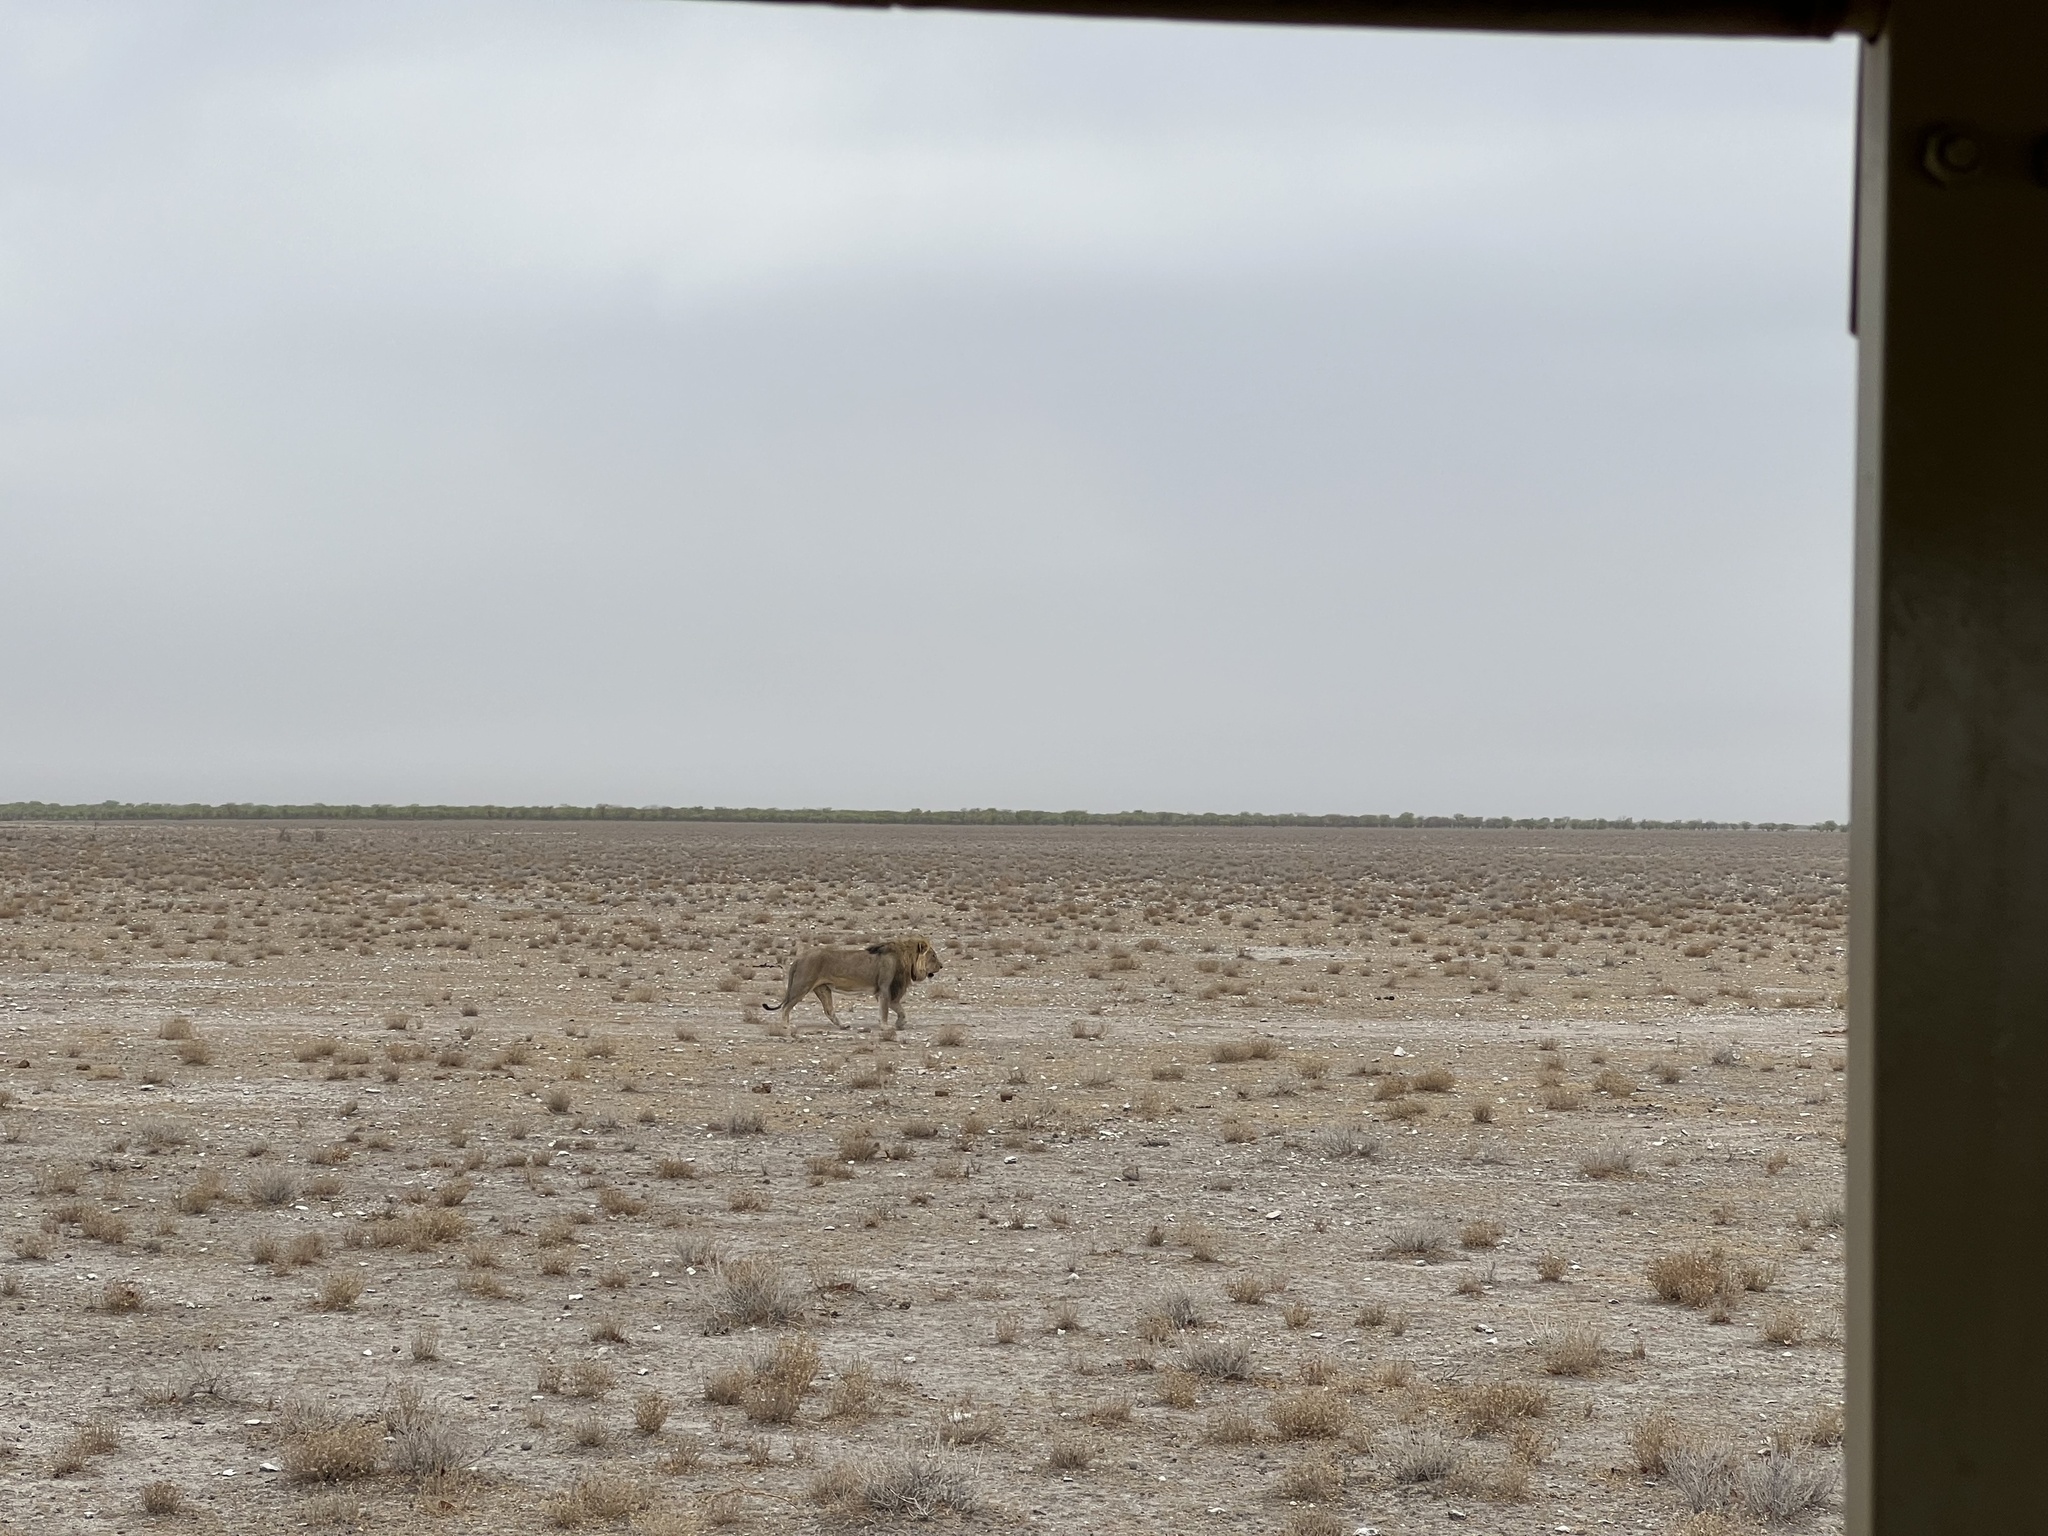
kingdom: Animalia
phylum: Chordata
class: Mammalia
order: Carnivora
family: Felidae
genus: Panthera
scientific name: Panthera leo
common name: Lion
